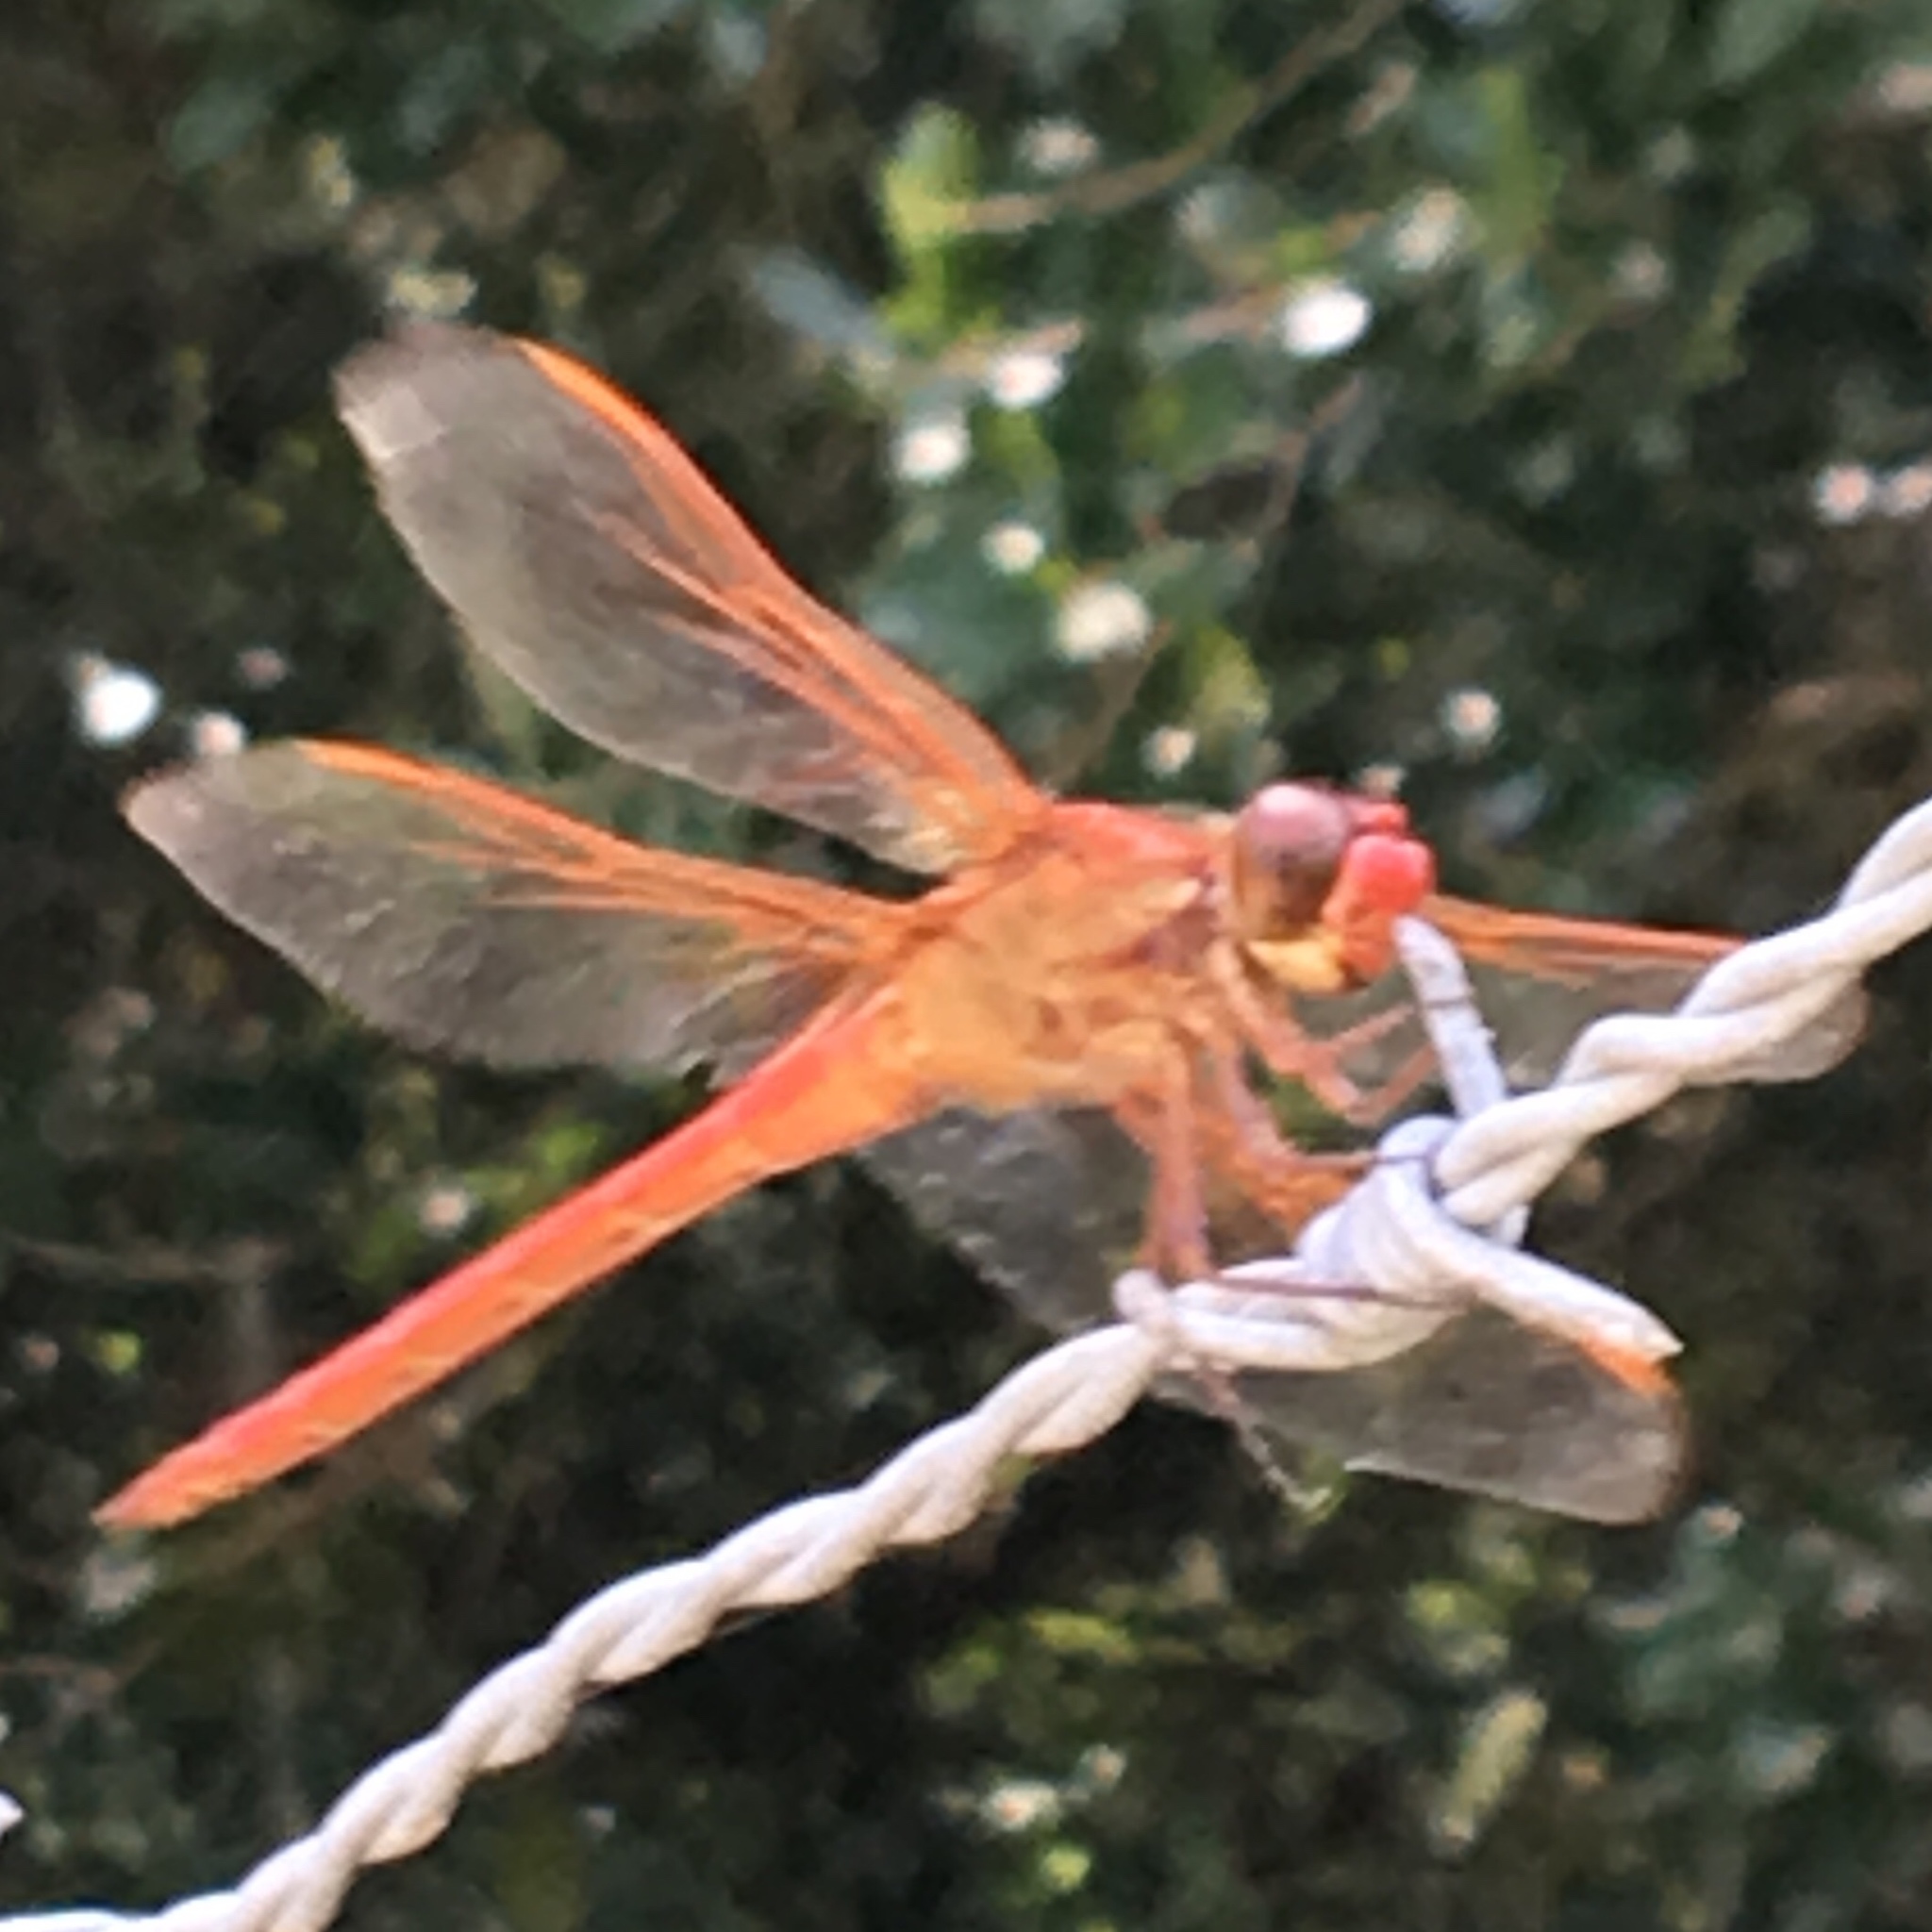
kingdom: Animalia
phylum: Arthropoda
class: Insecta
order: Odonata
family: Libellulidae
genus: Libellula
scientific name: Libellula needhami
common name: Needham's skimmer
